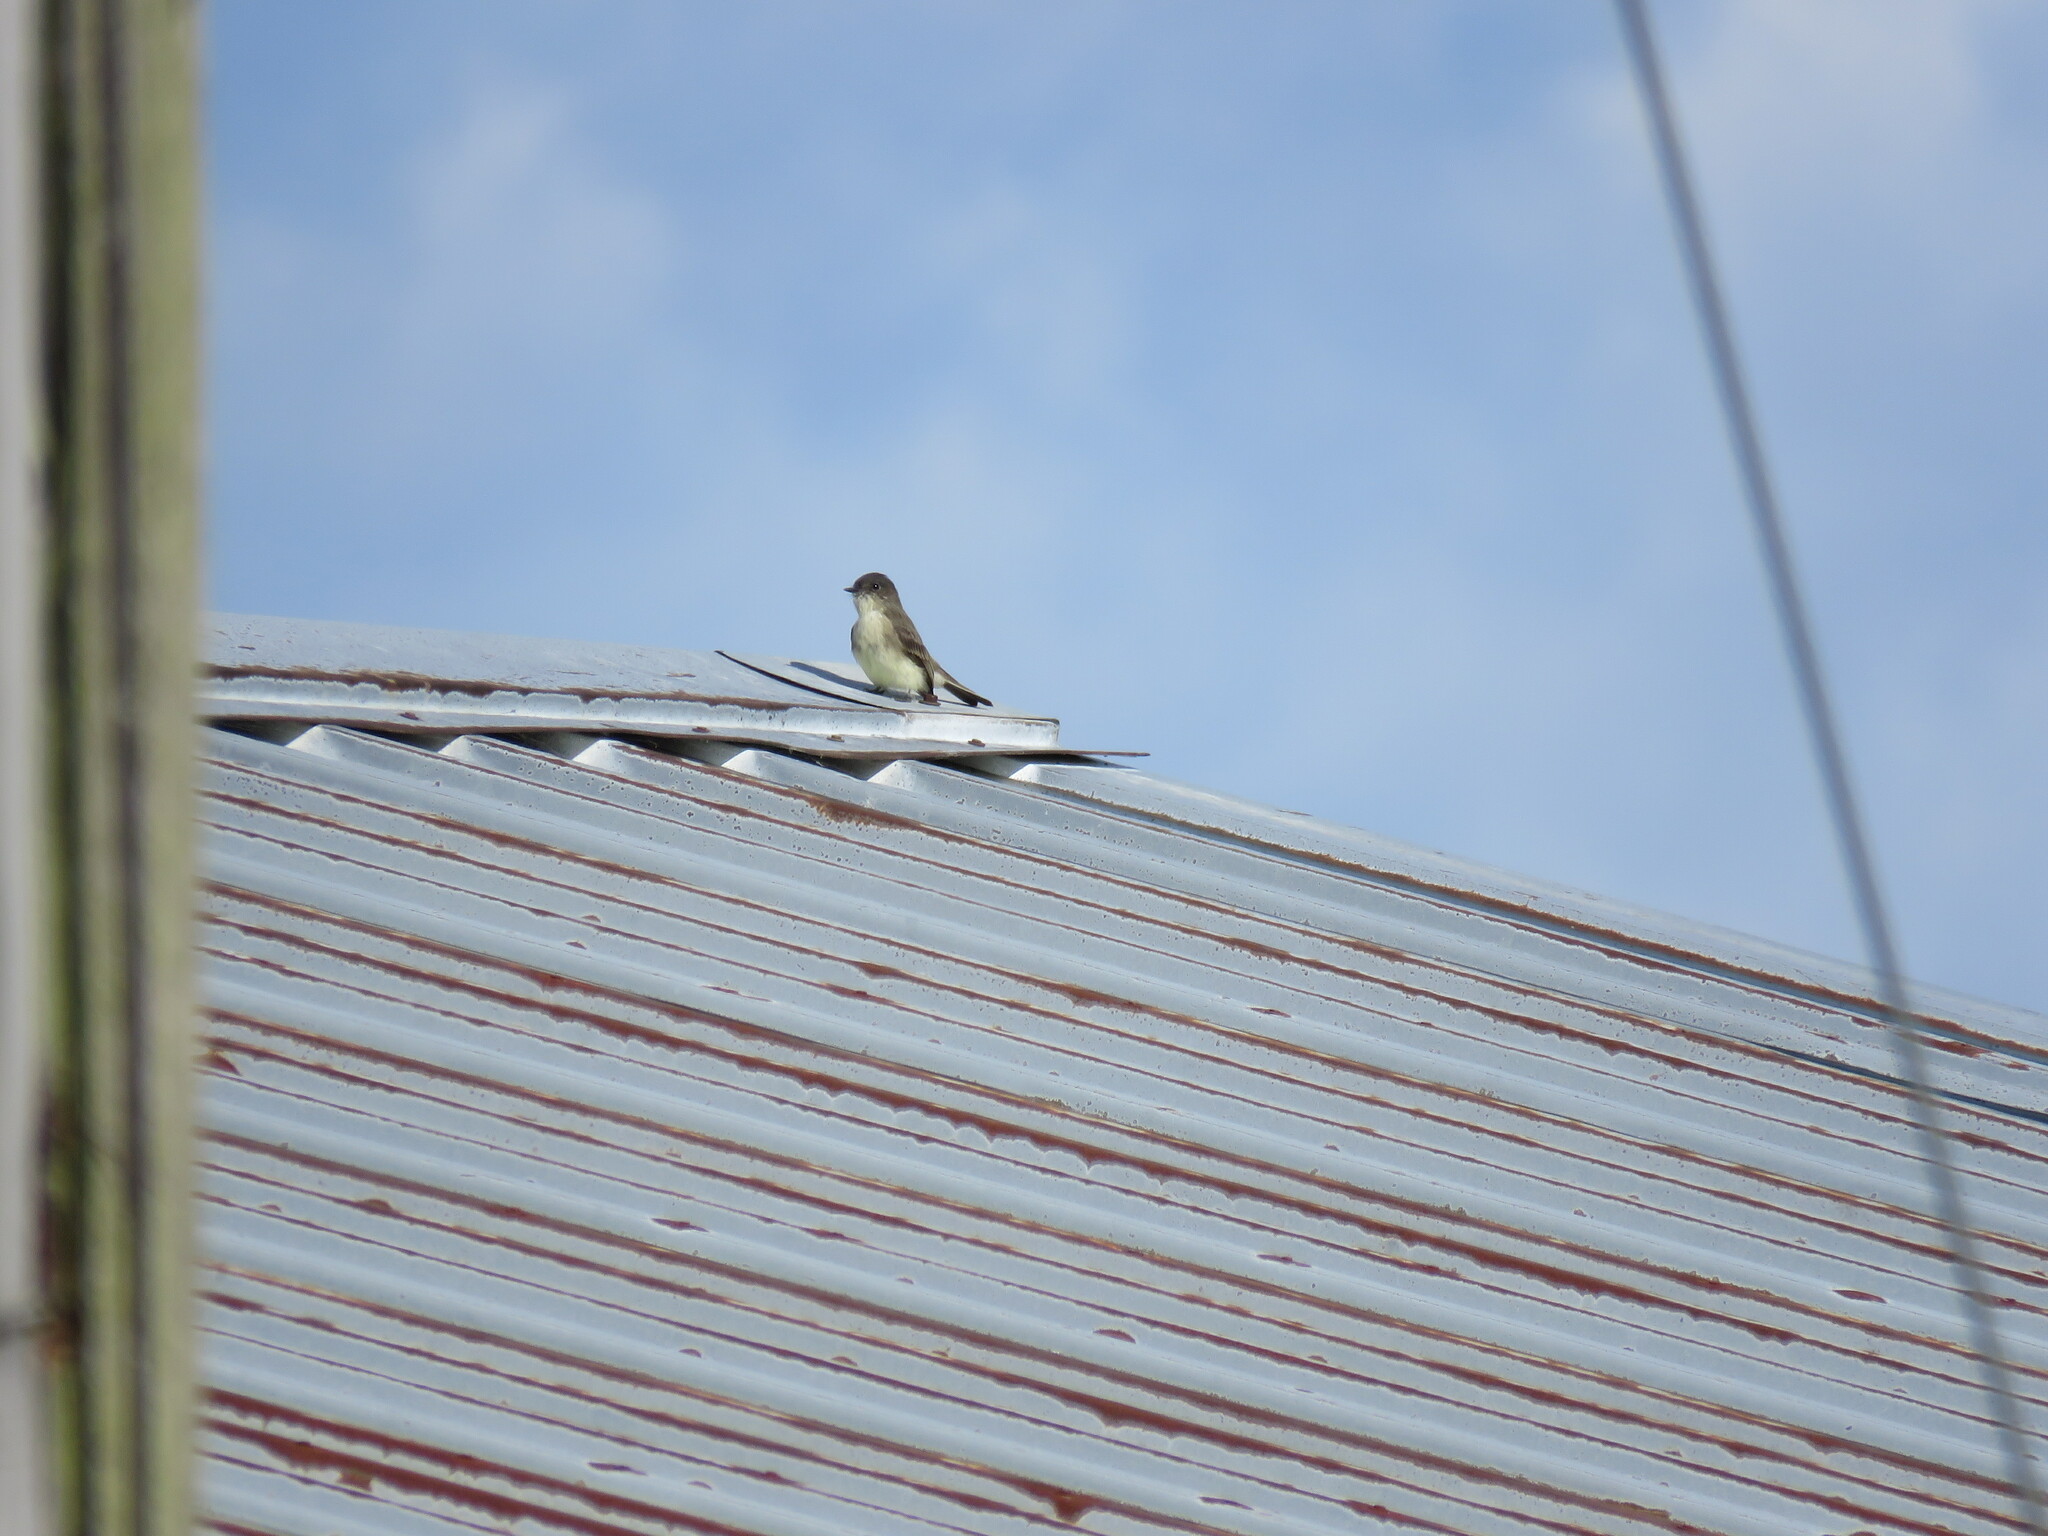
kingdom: Animalia
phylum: Chordata
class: Aves
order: Passeriformes
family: Tyrannidae
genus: Sayornis
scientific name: Sayornis phoebe
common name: Eastern phoebe
